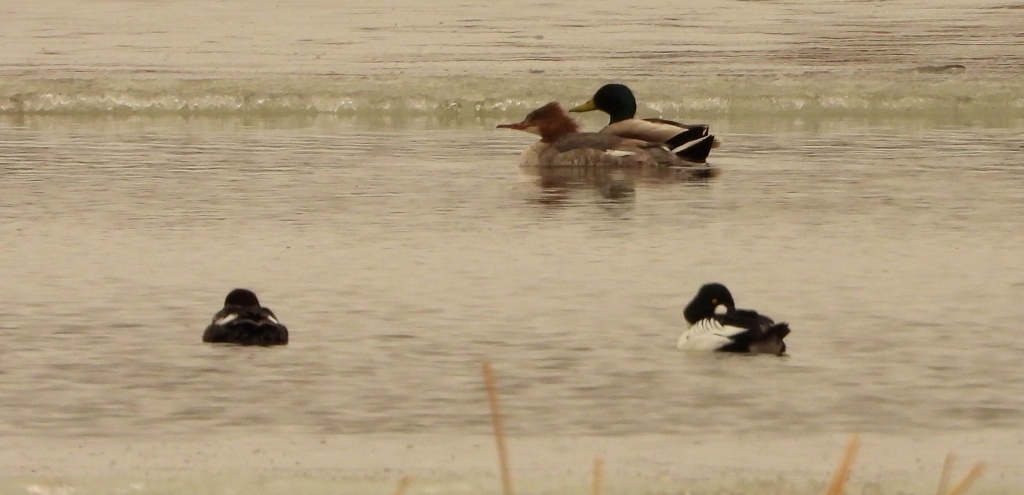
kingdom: Animalia
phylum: Chordata
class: Aves
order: Anseriformes
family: Anatidae
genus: Bucephala
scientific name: Bucephala clangula
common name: Common goldeneye
